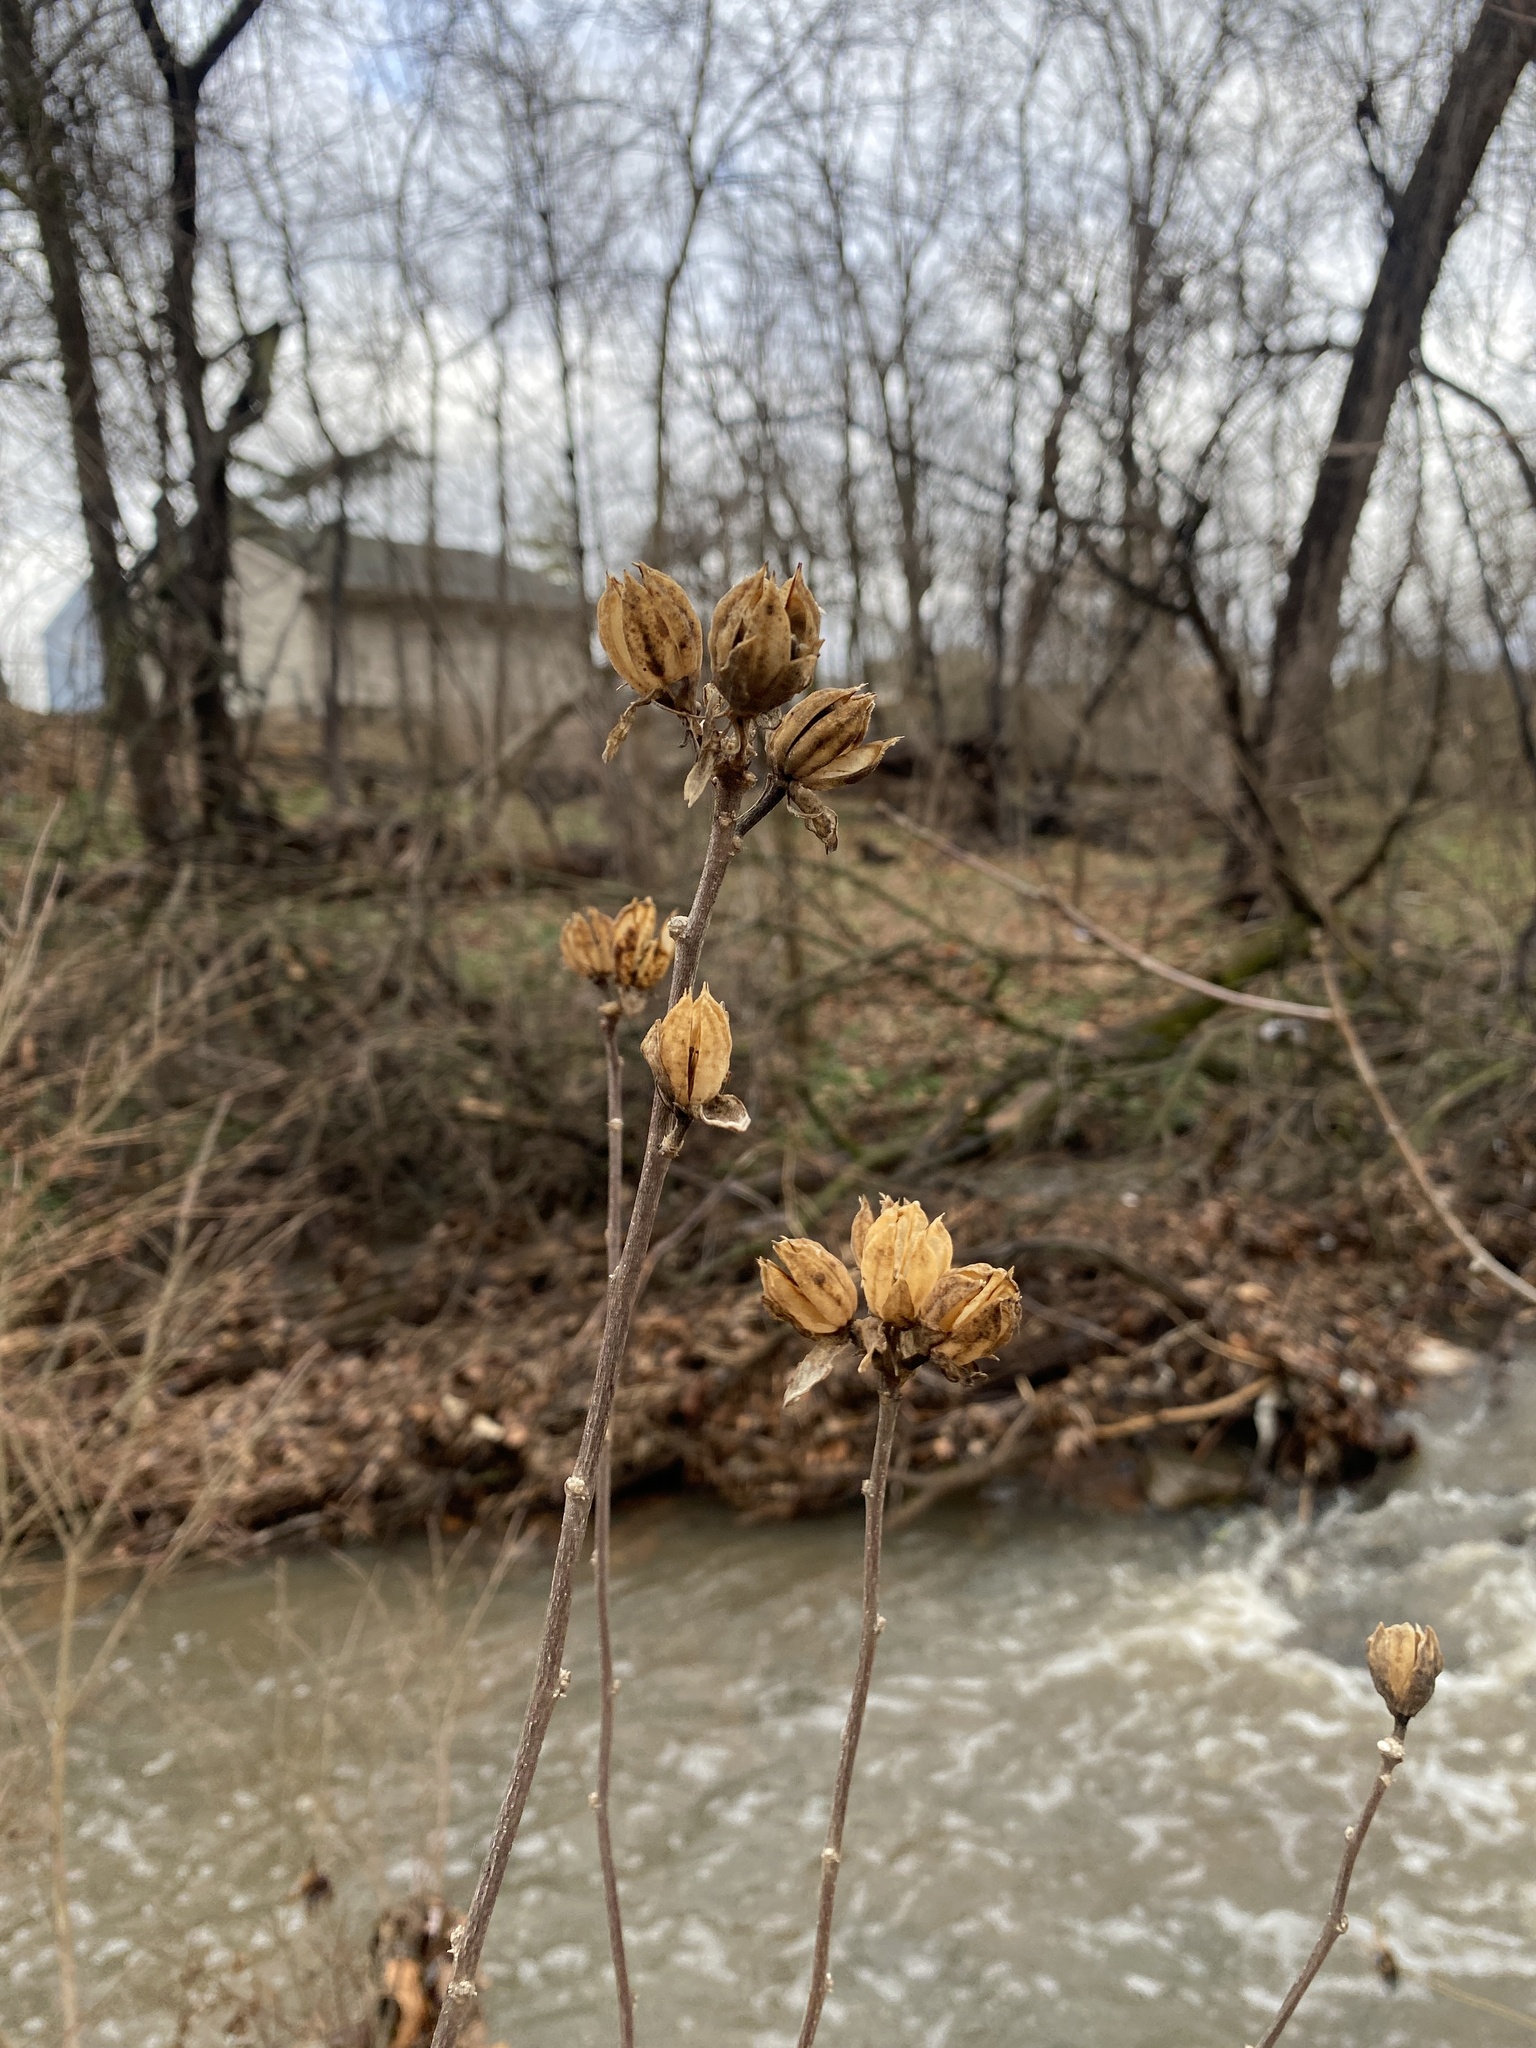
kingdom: Plantae
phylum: Tracheophyta
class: Magnoliopsida
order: Malvales
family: Malvaceae
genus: Hibiscus
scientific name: Hibiscus syriacus
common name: Syrian ketmia
